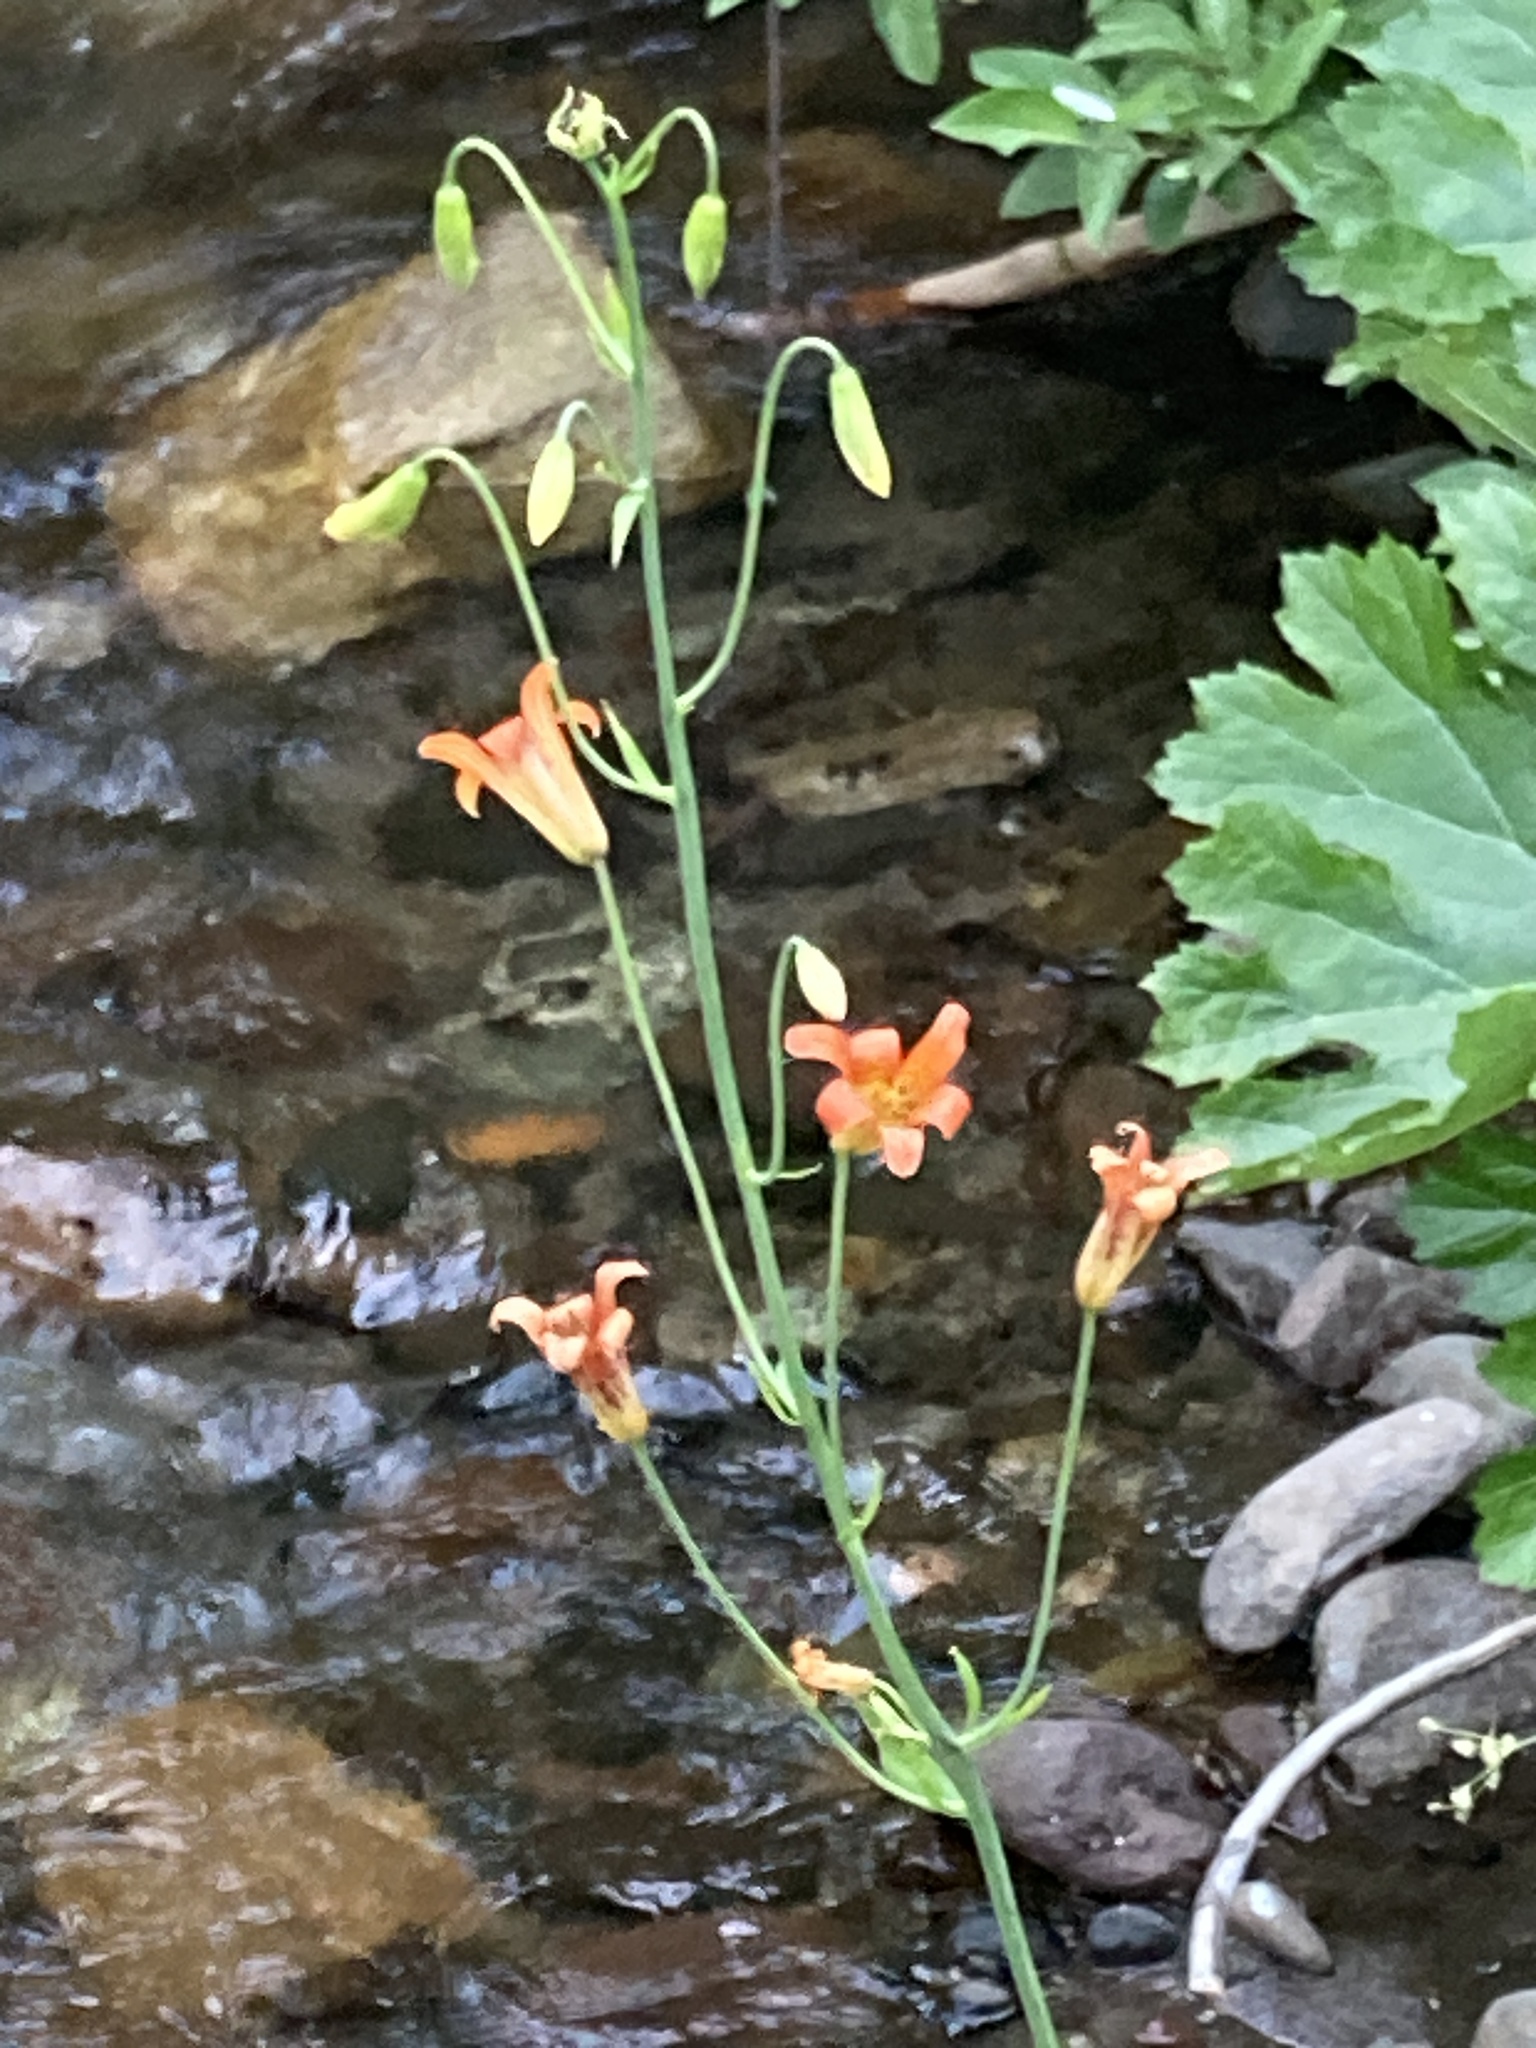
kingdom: Plantae
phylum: Tracheophyta
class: Liliopsida
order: Liliales
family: Liliaceae
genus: Lilium
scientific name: Lilium parvum
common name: Alpine lily
